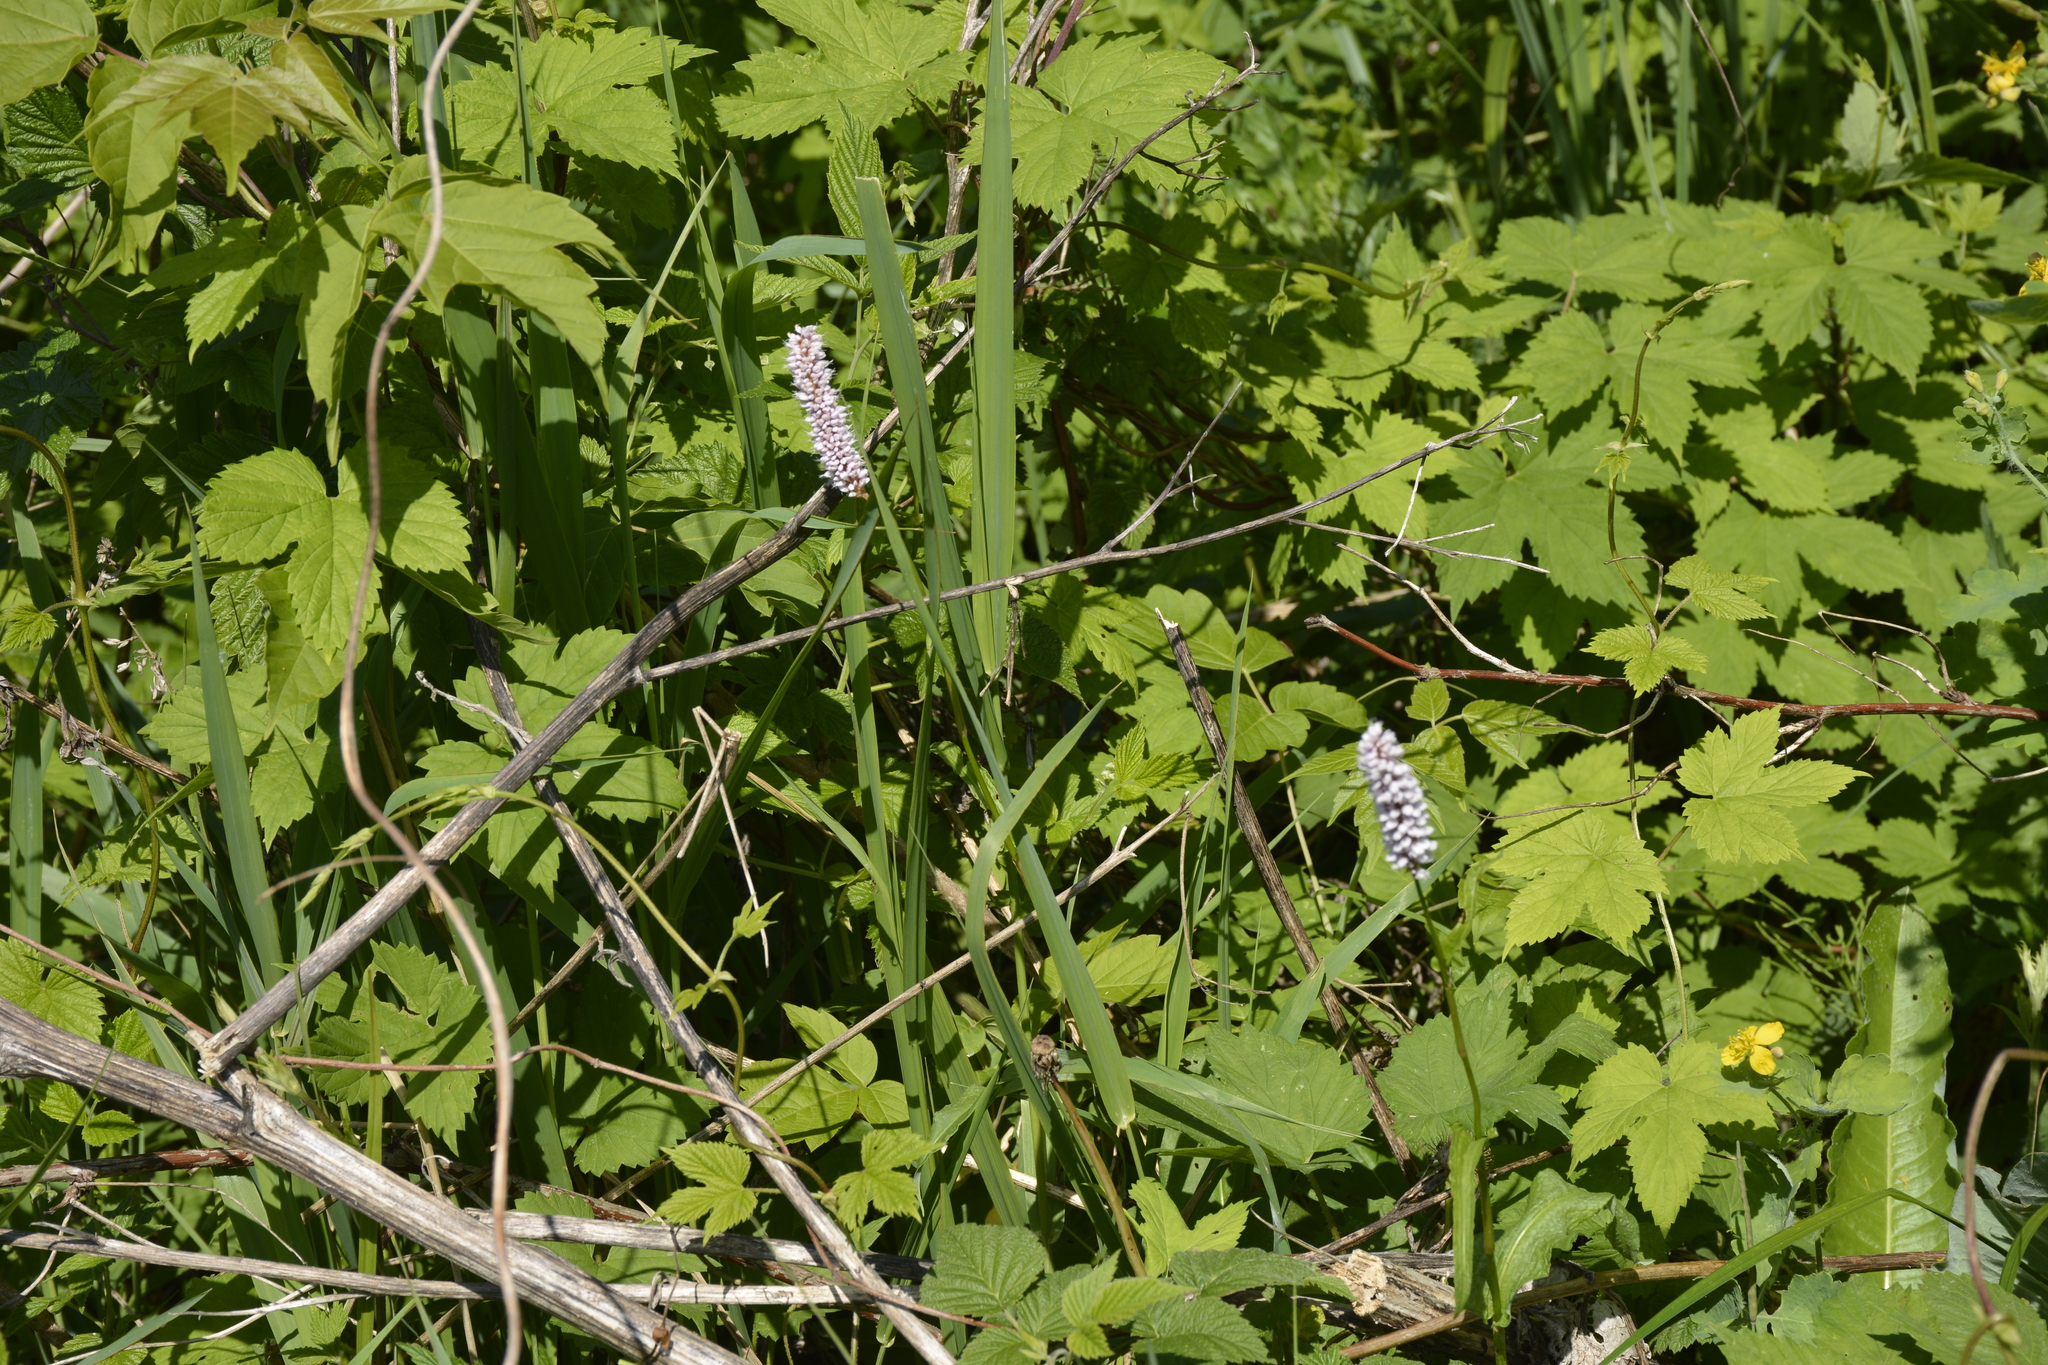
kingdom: Plantae
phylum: Tracheophyta
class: Magnoliopsida
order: Caryophyllales
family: Polygonaceae
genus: Bistorta
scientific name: Bistorta officinalis
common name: Common bistort
